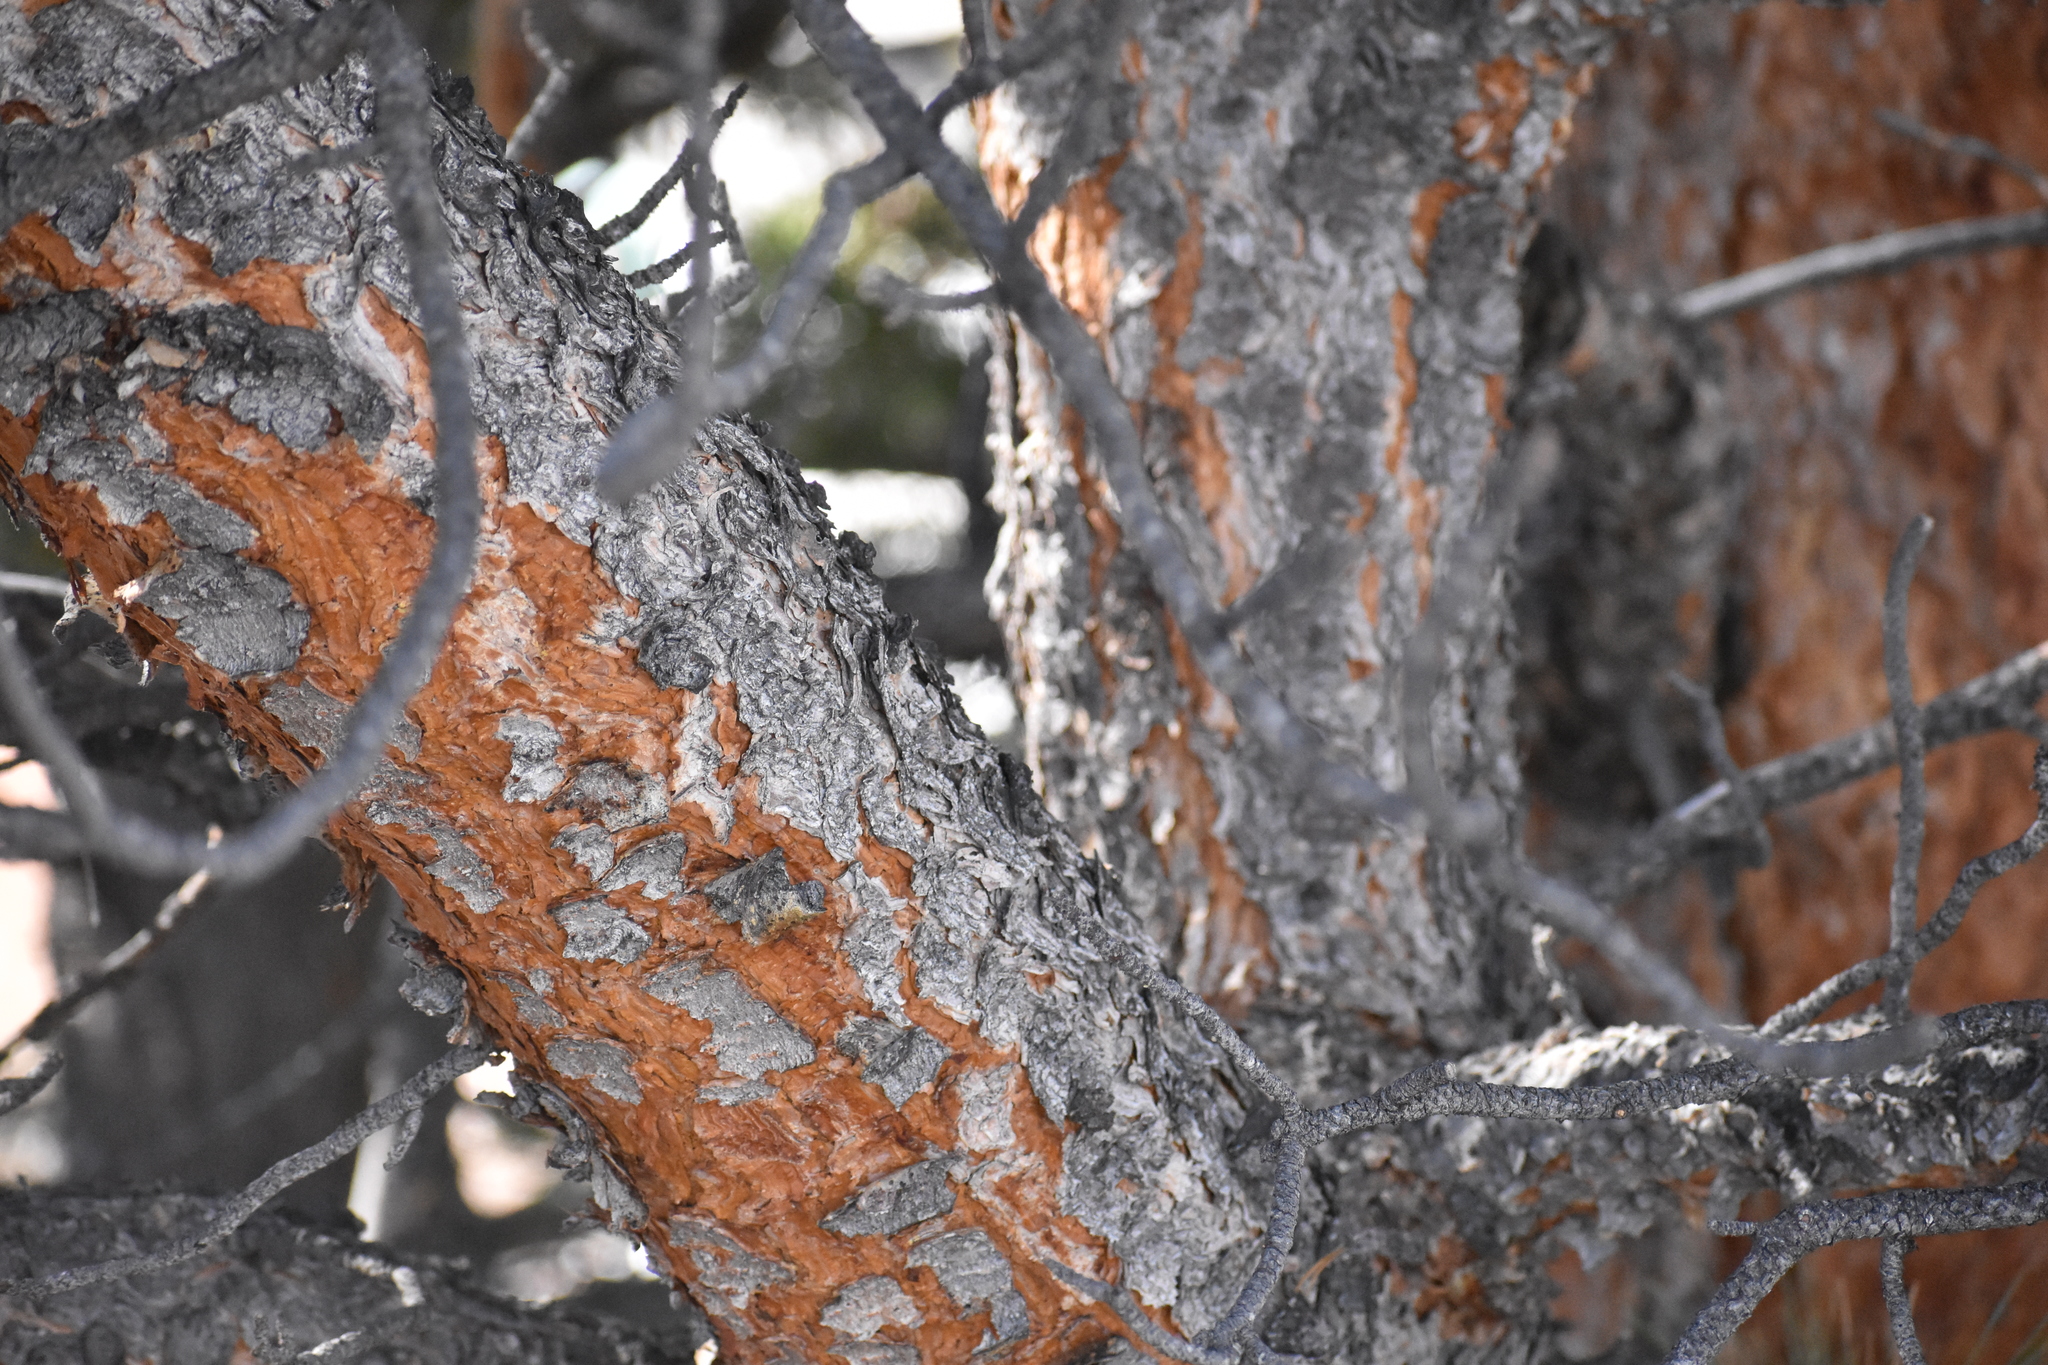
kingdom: Plantae
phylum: Tracheophyta
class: Pinopsida
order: Pinales
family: Pinaceae
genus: Pinus
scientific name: Pinus ponderosa
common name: Western yellow-pine
